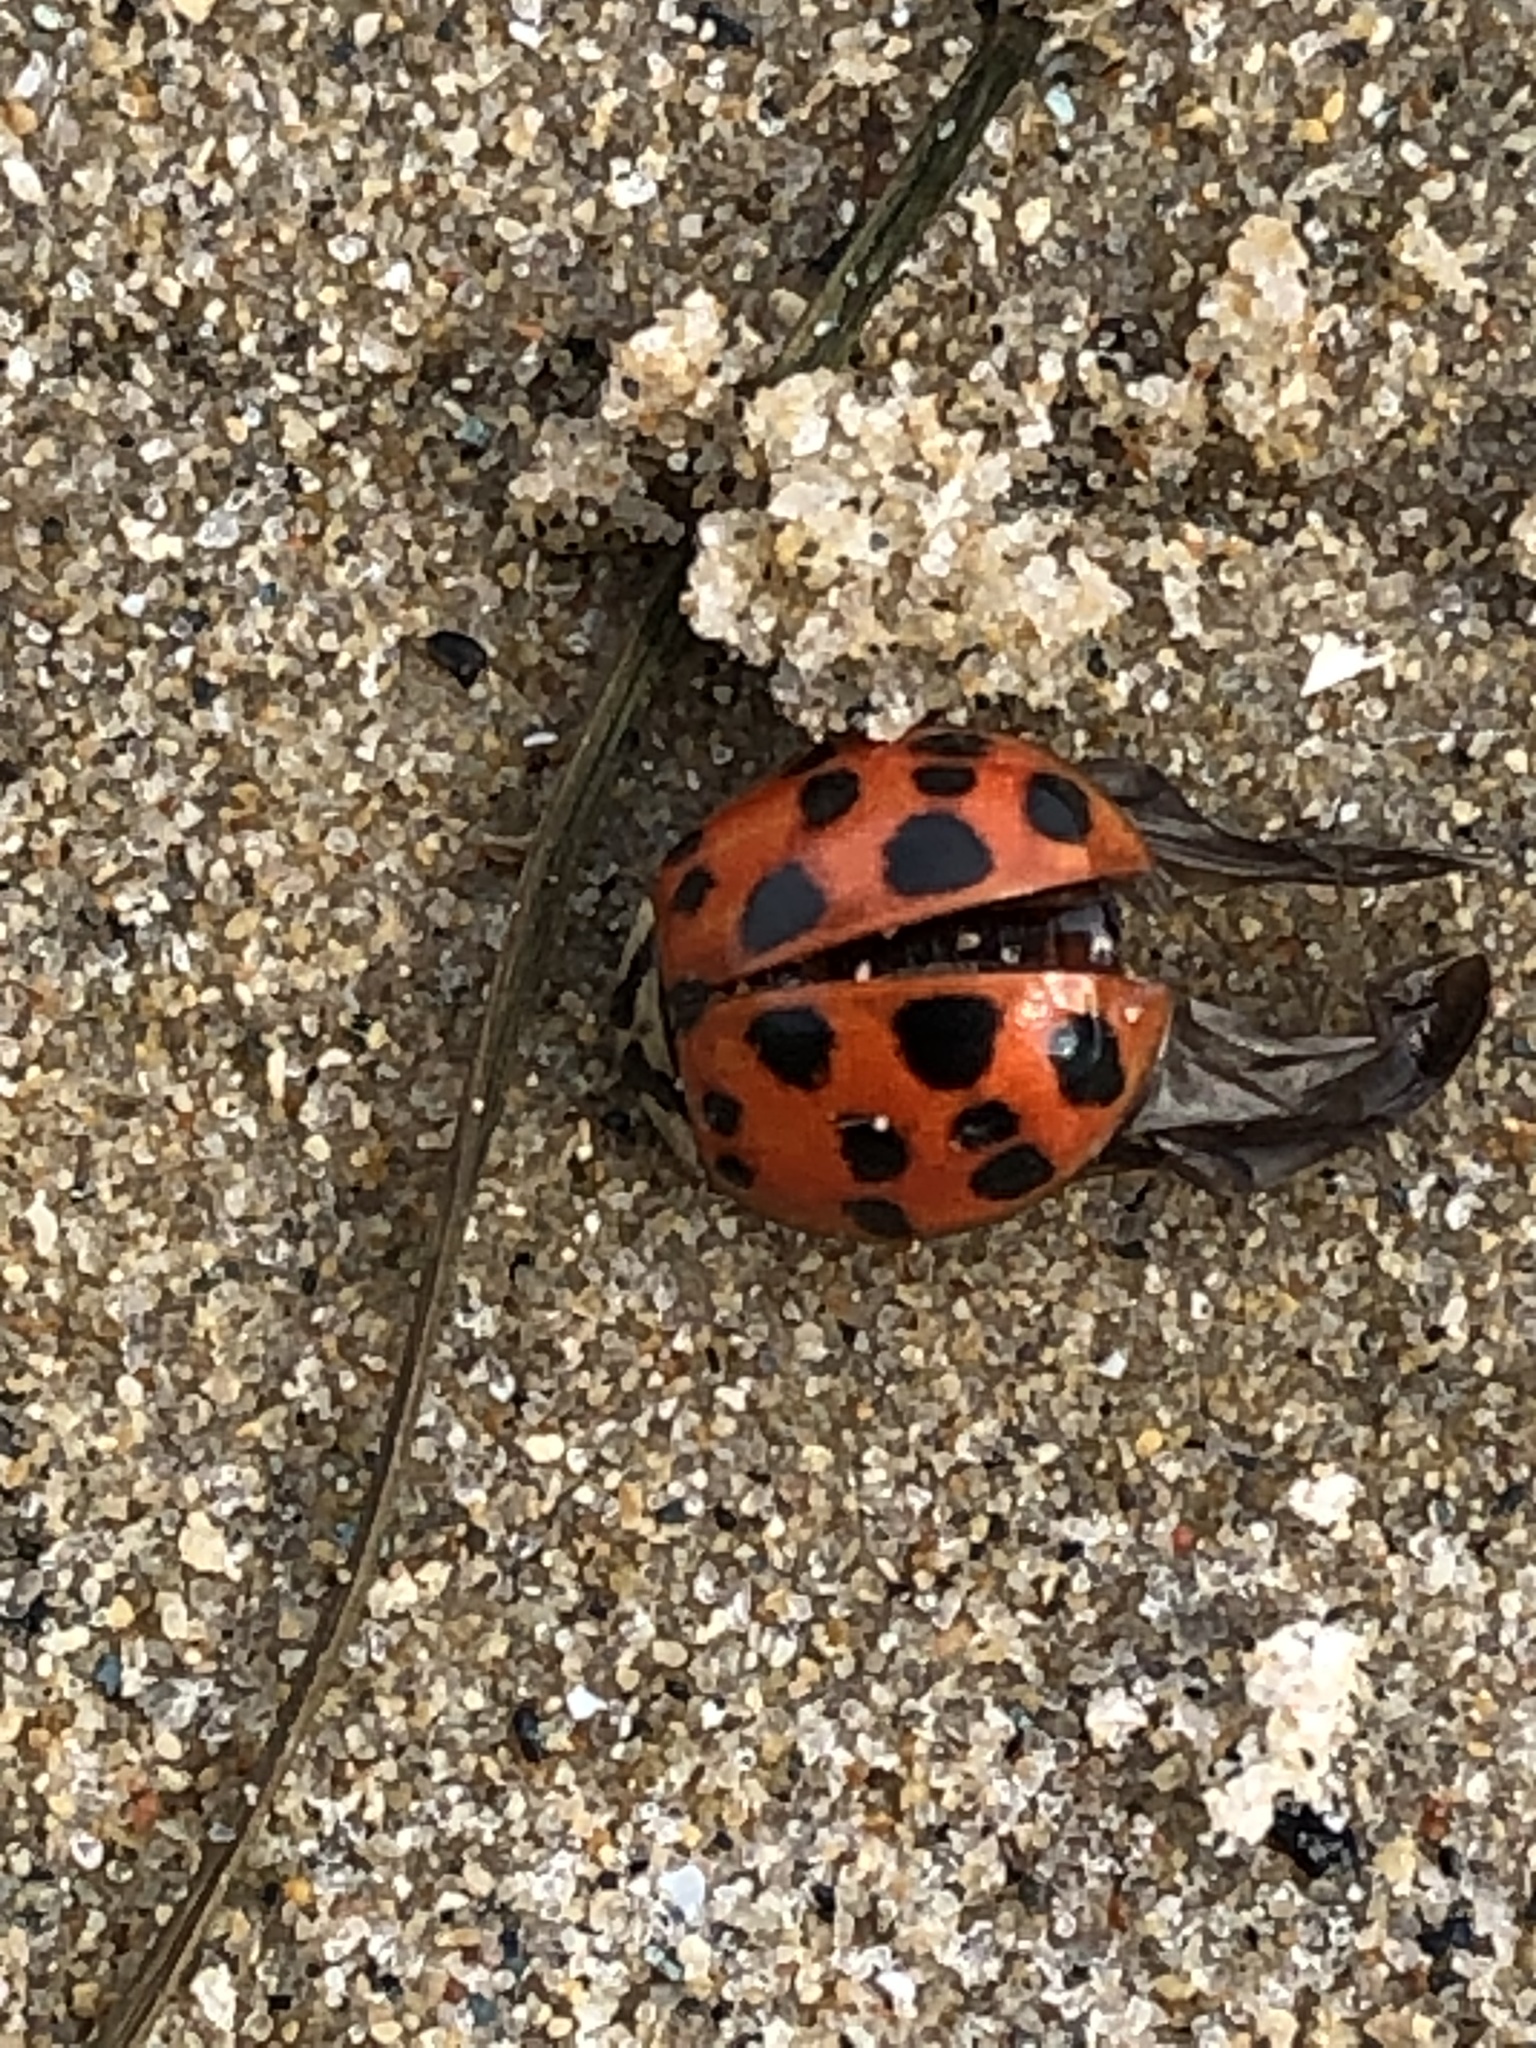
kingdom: Animalia
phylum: Arthropoda
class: Insecta
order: Coleoptera
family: Coccinellidae
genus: Harmonia
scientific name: Harmonia axyridis
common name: Harlequin ladybird
